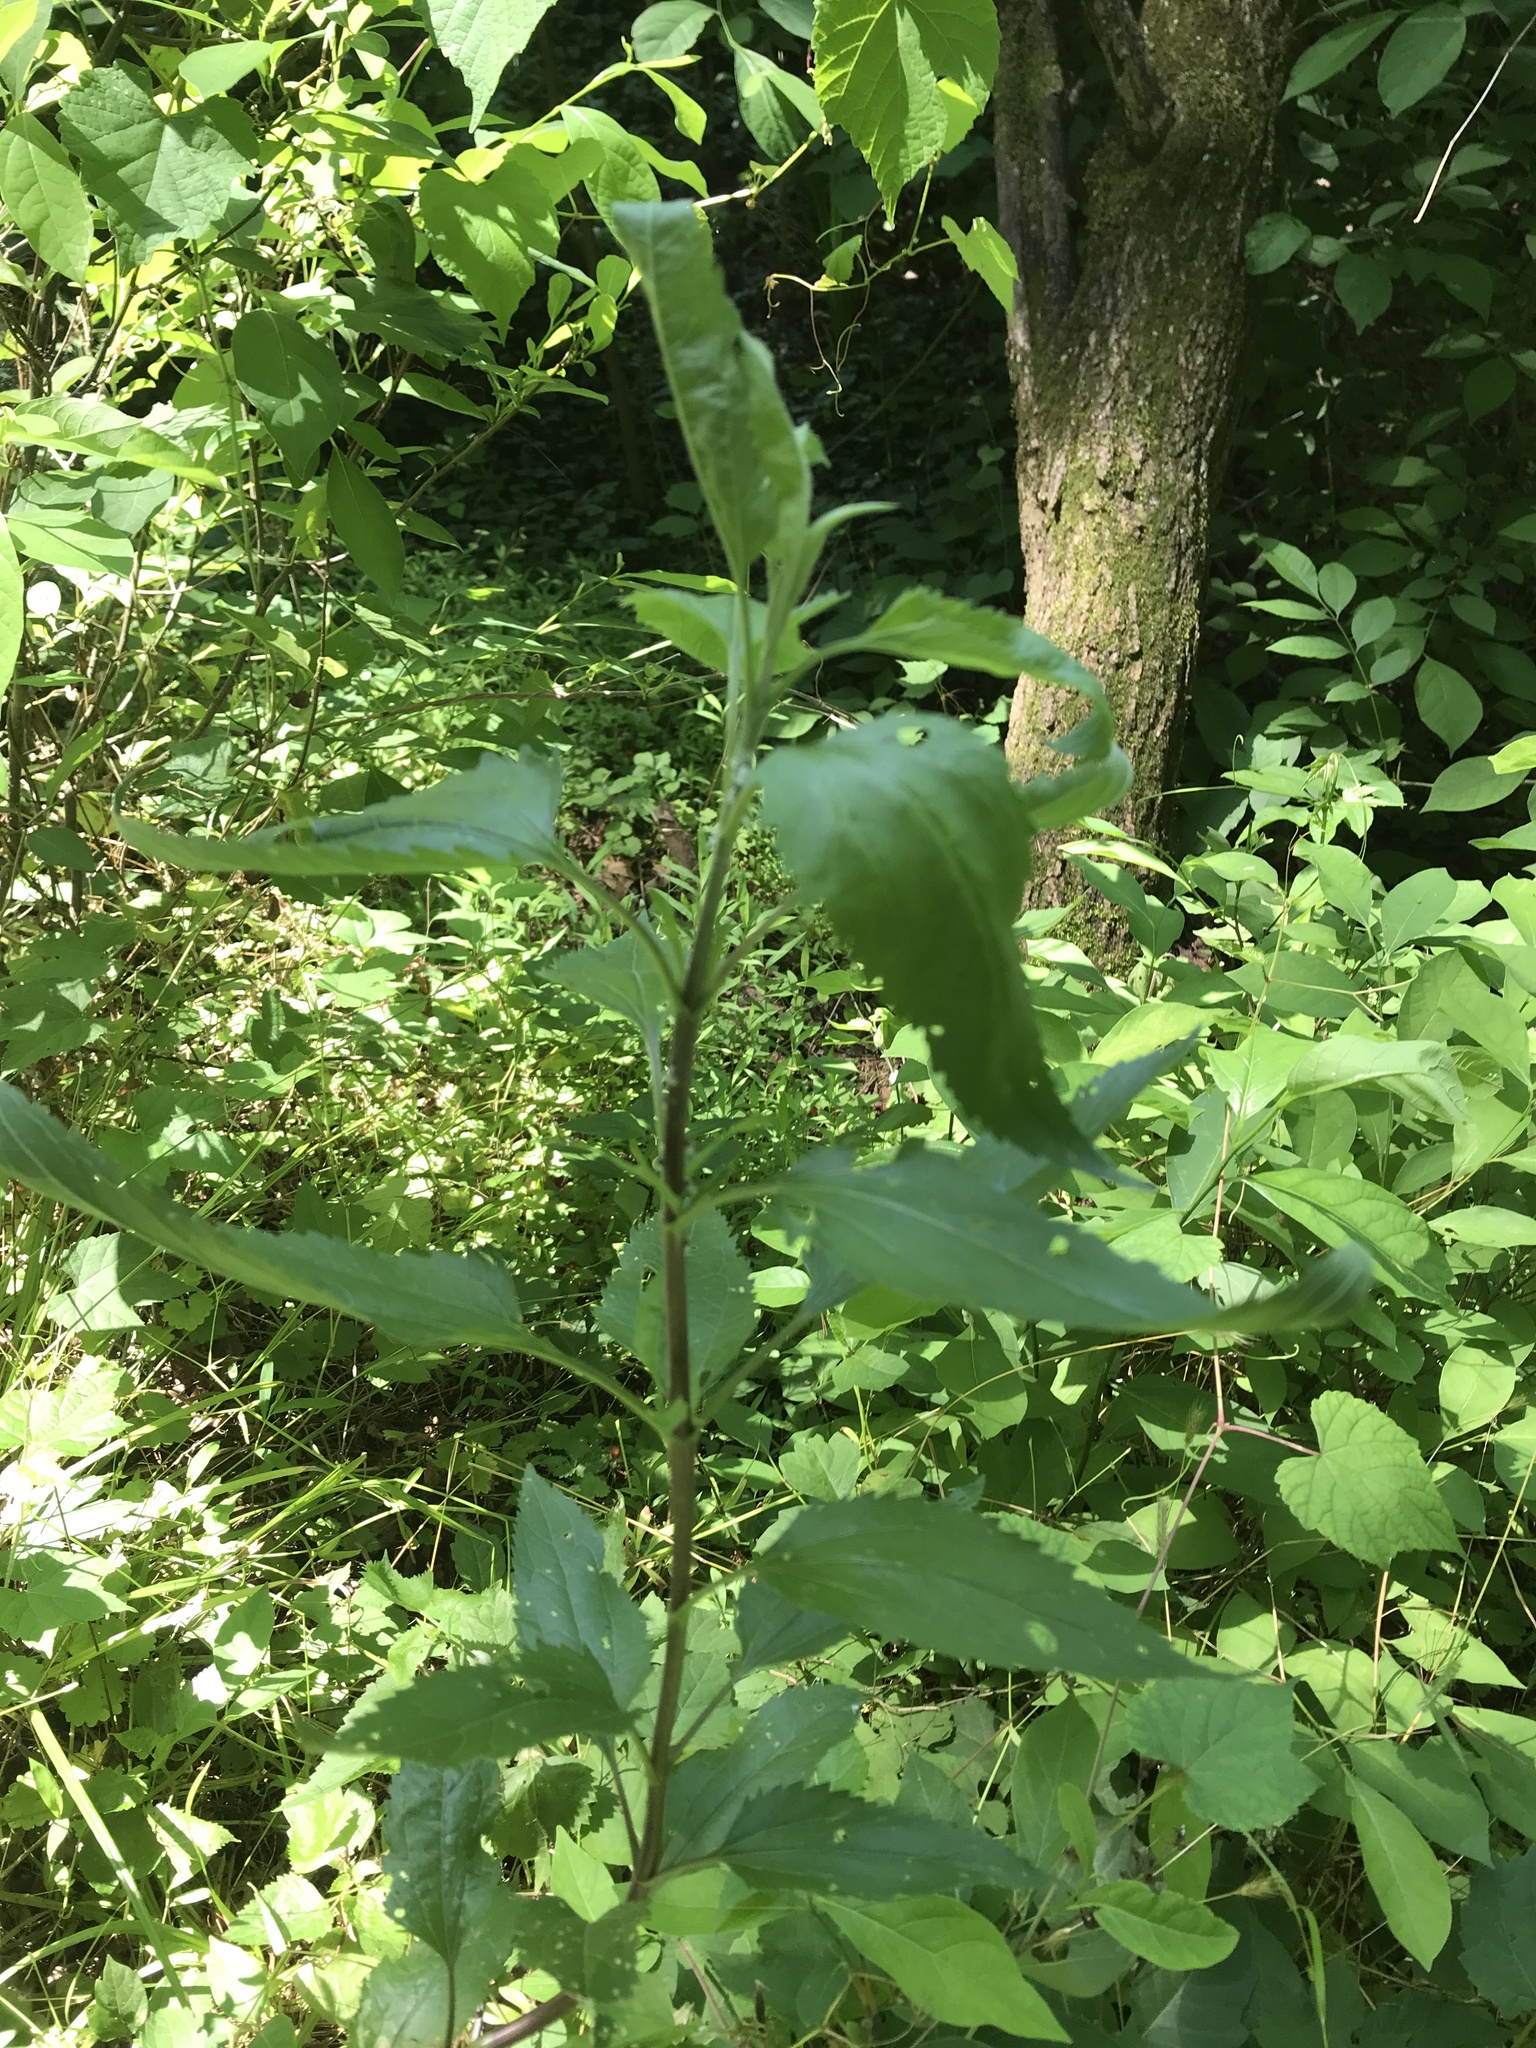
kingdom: Plantae
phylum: Tracheophyta
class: Magnoliopsida
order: Asterales
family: Asteraceae
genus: Eupatorium
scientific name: Eupatorium serotinum
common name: Late boneset
